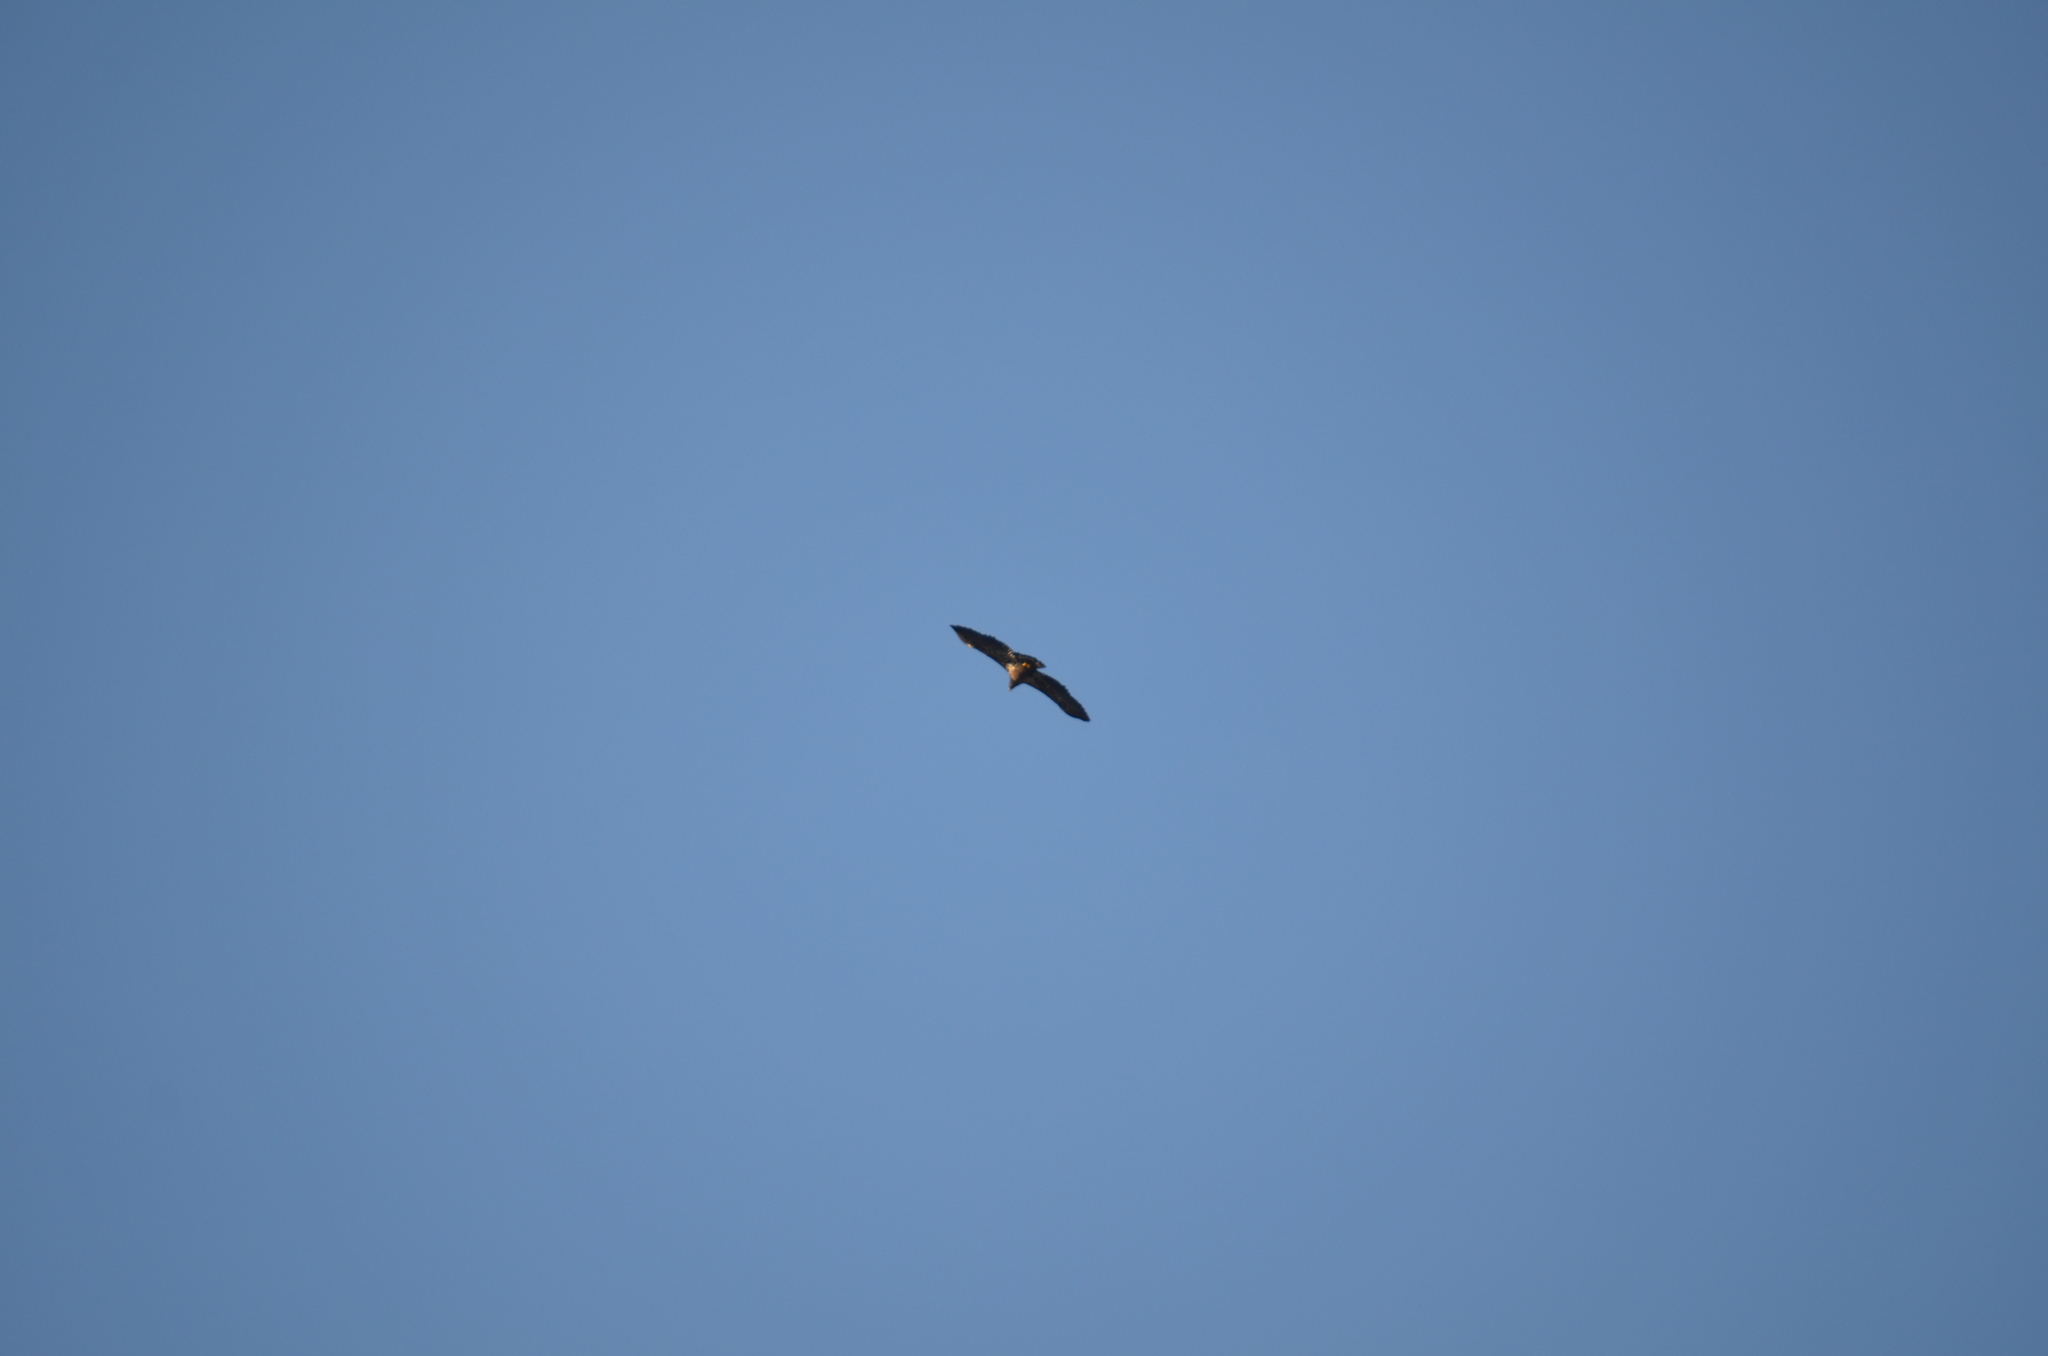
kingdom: Animalia
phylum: Chordata
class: Aves
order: Accipitriformes
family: Accipitridae
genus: Haliaeetus
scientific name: Haliaeetus leucocephalus
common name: Bald eagle
